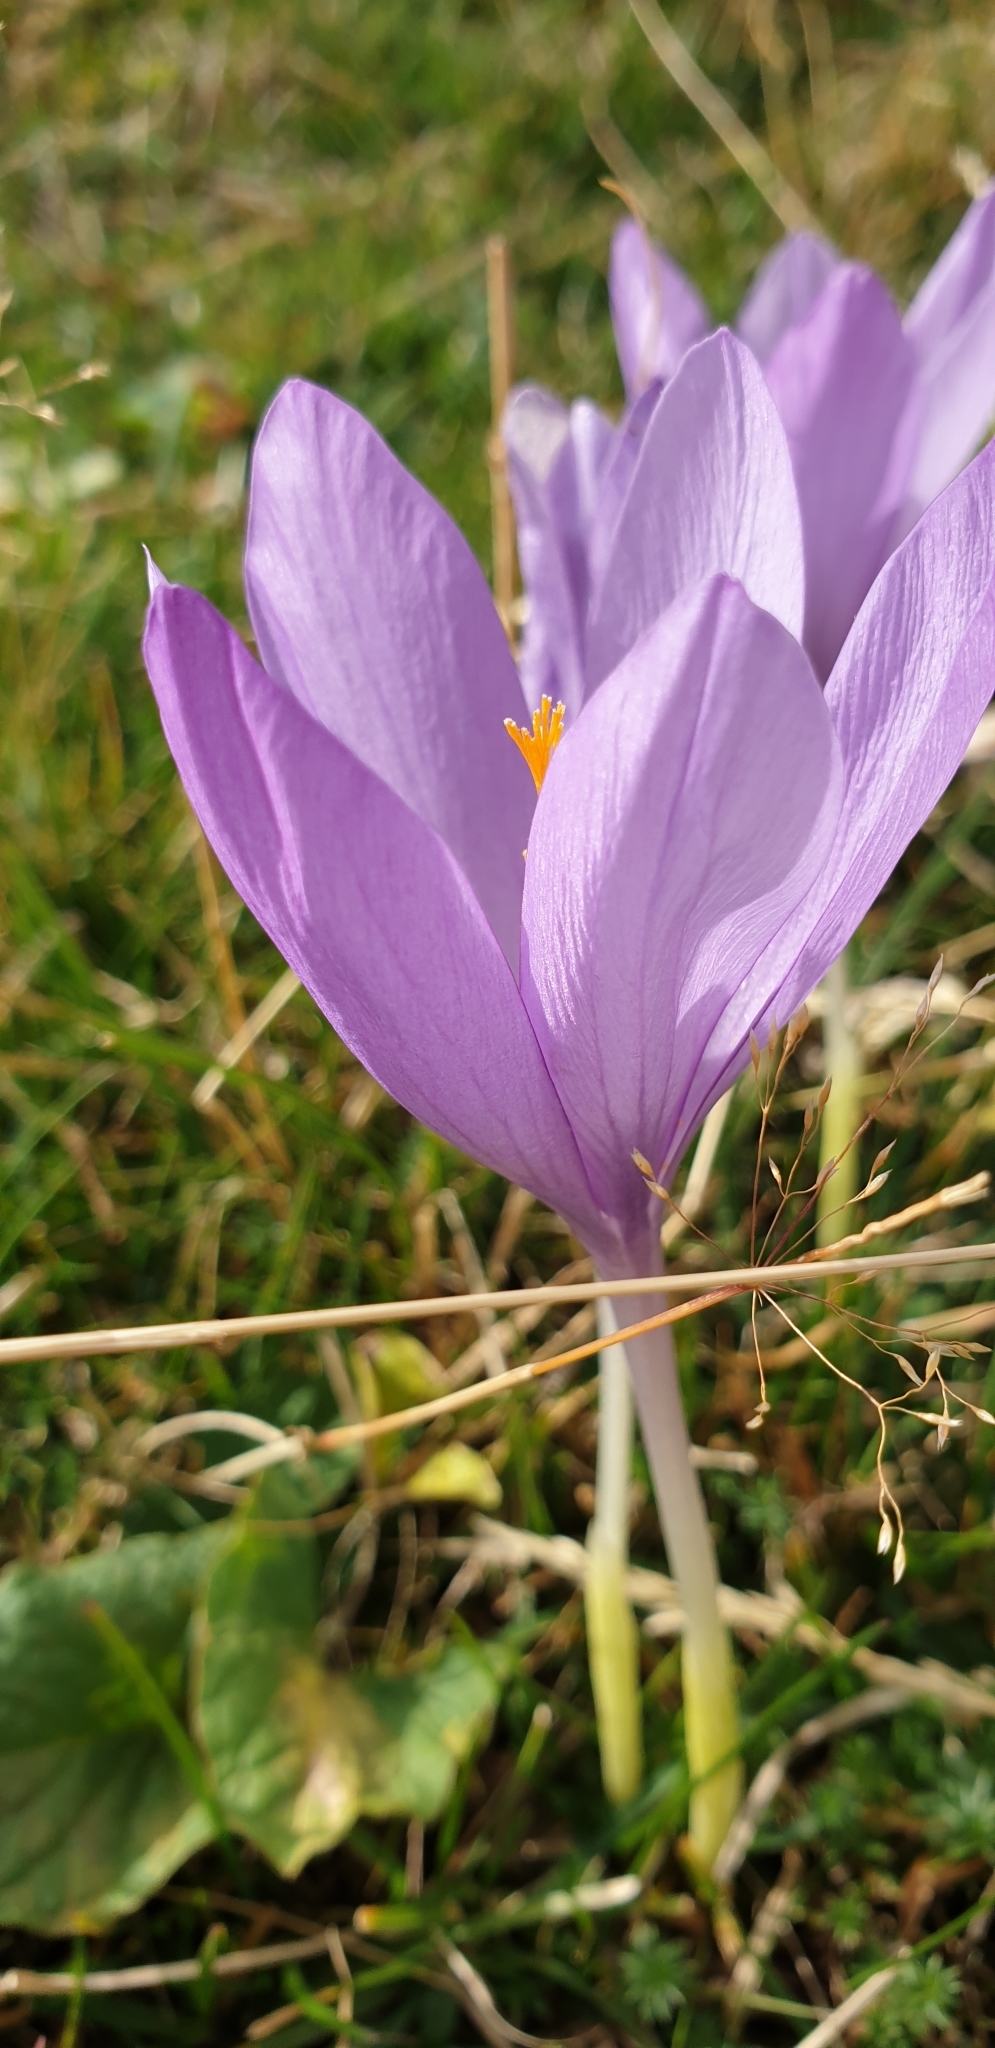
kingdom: Plantae
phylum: Tracheophyta
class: Liliopsida
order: Asparagales
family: Iridaceae
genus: Crocus
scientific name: Crocus nudiflorus
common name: Autumn crocus
